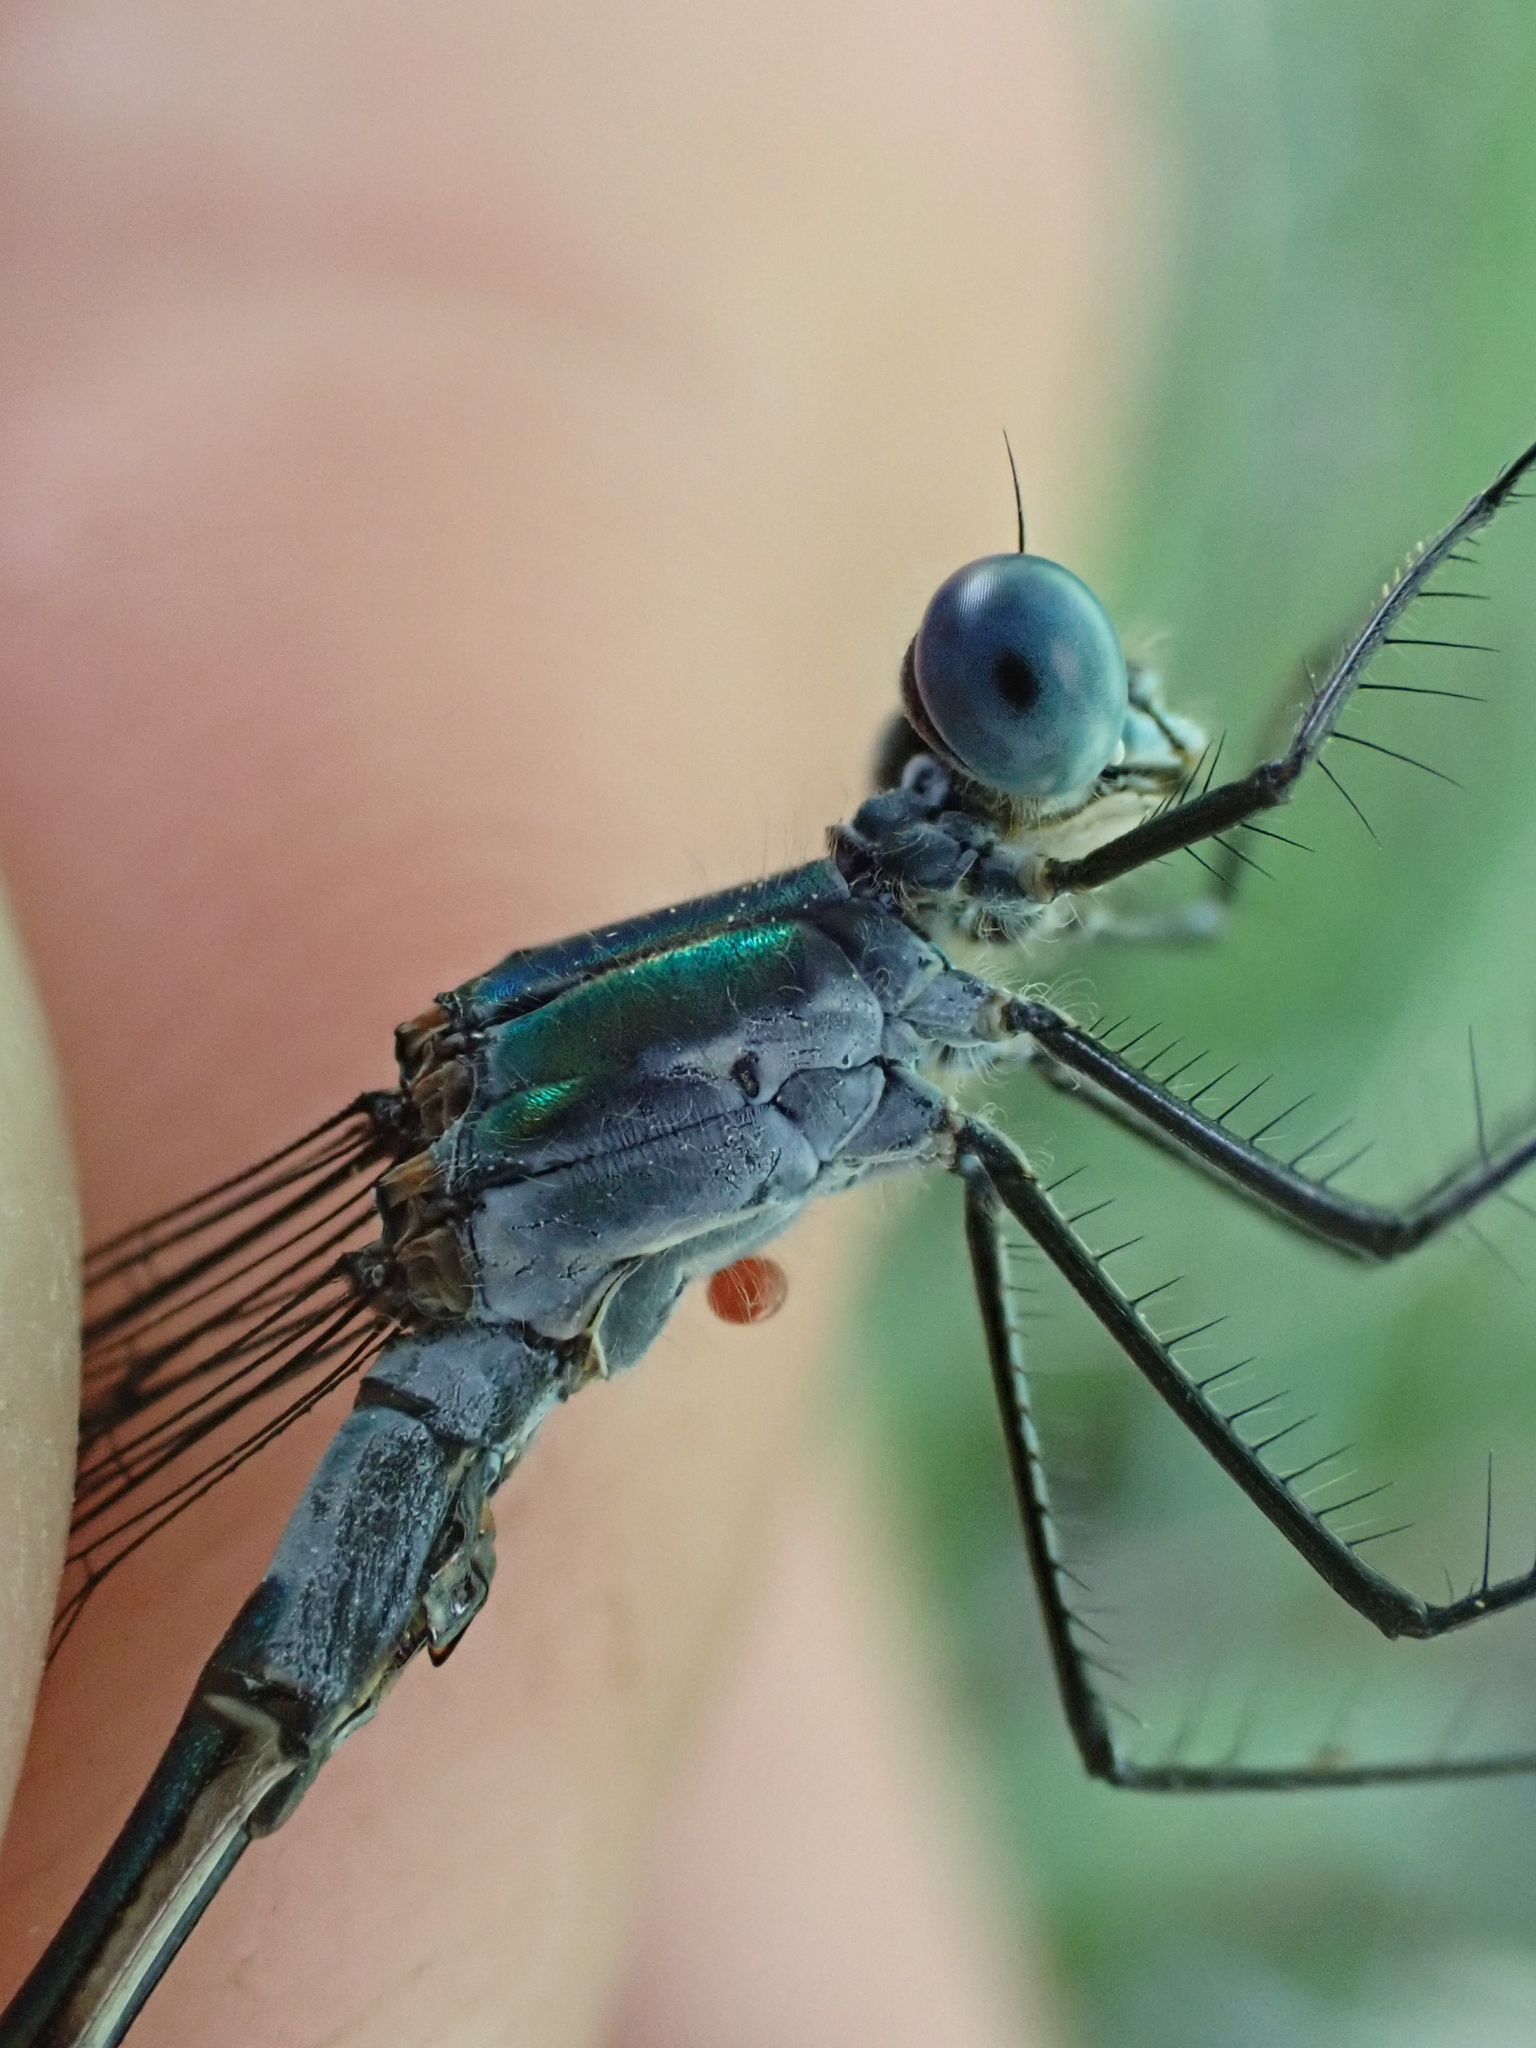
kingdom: Animalia
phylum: Arthropoda
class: Insecta
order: Odonata
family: Lestidae
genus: Lestes
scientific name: Lestes dryas
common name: Scarce emerald damselfly
